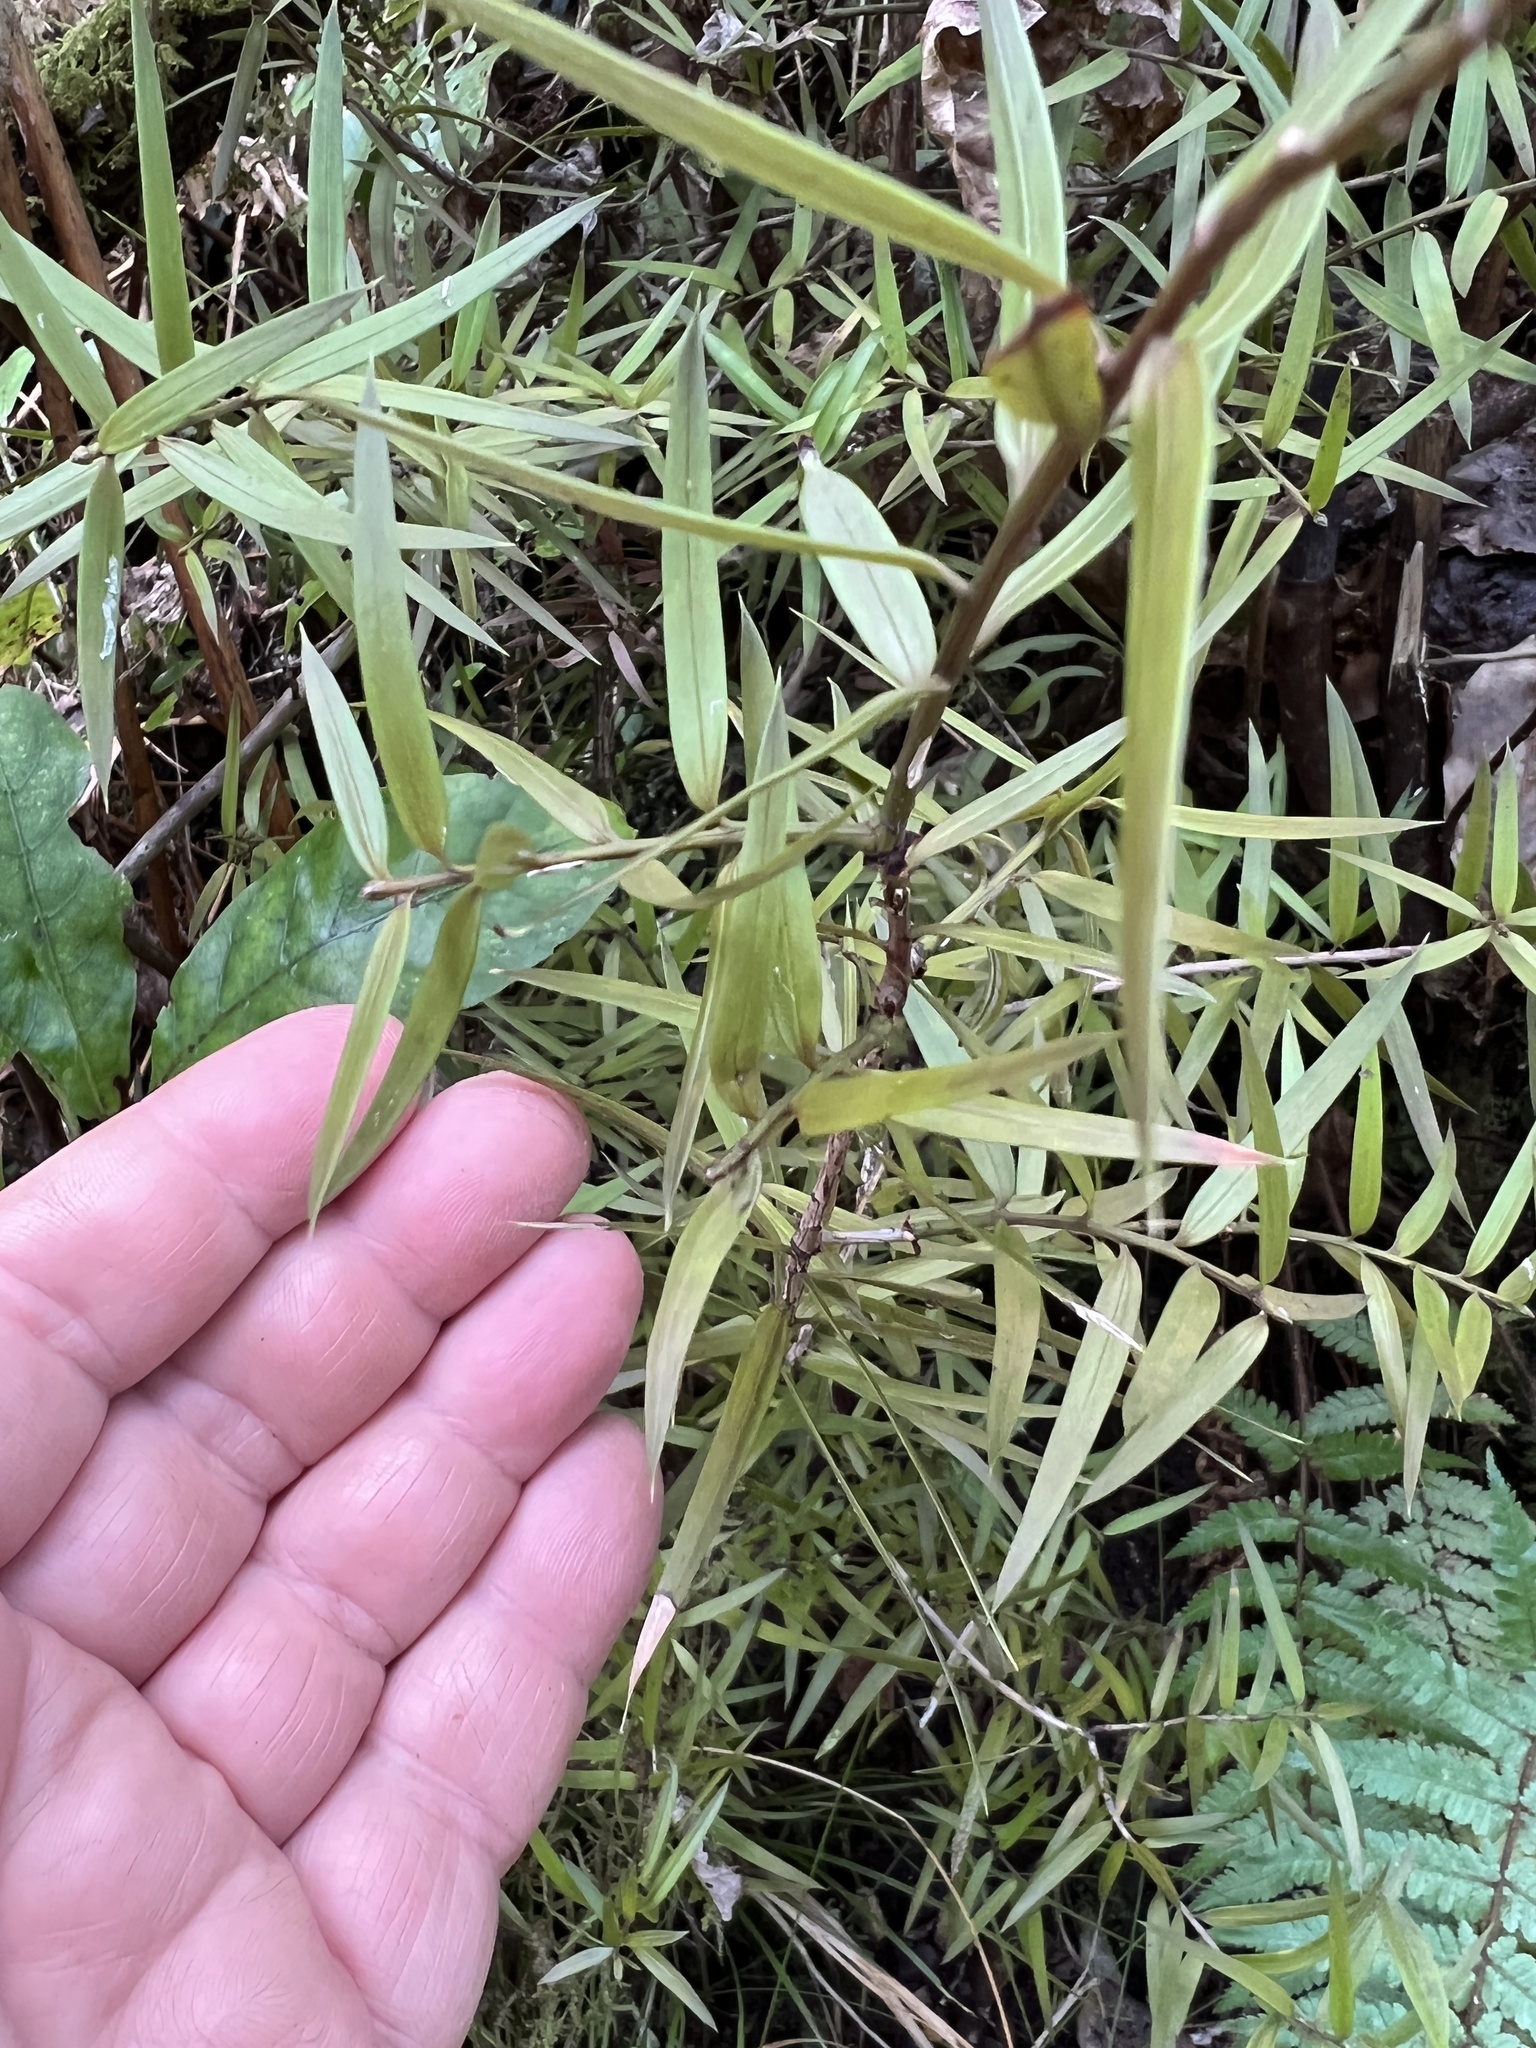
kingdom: Plantae
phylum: Tracheophyta
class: Pinopsida
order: Pinales
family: Podocarpaceae
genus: Podocarpus
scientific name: Podocarpus laetus
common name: Hall's totara
